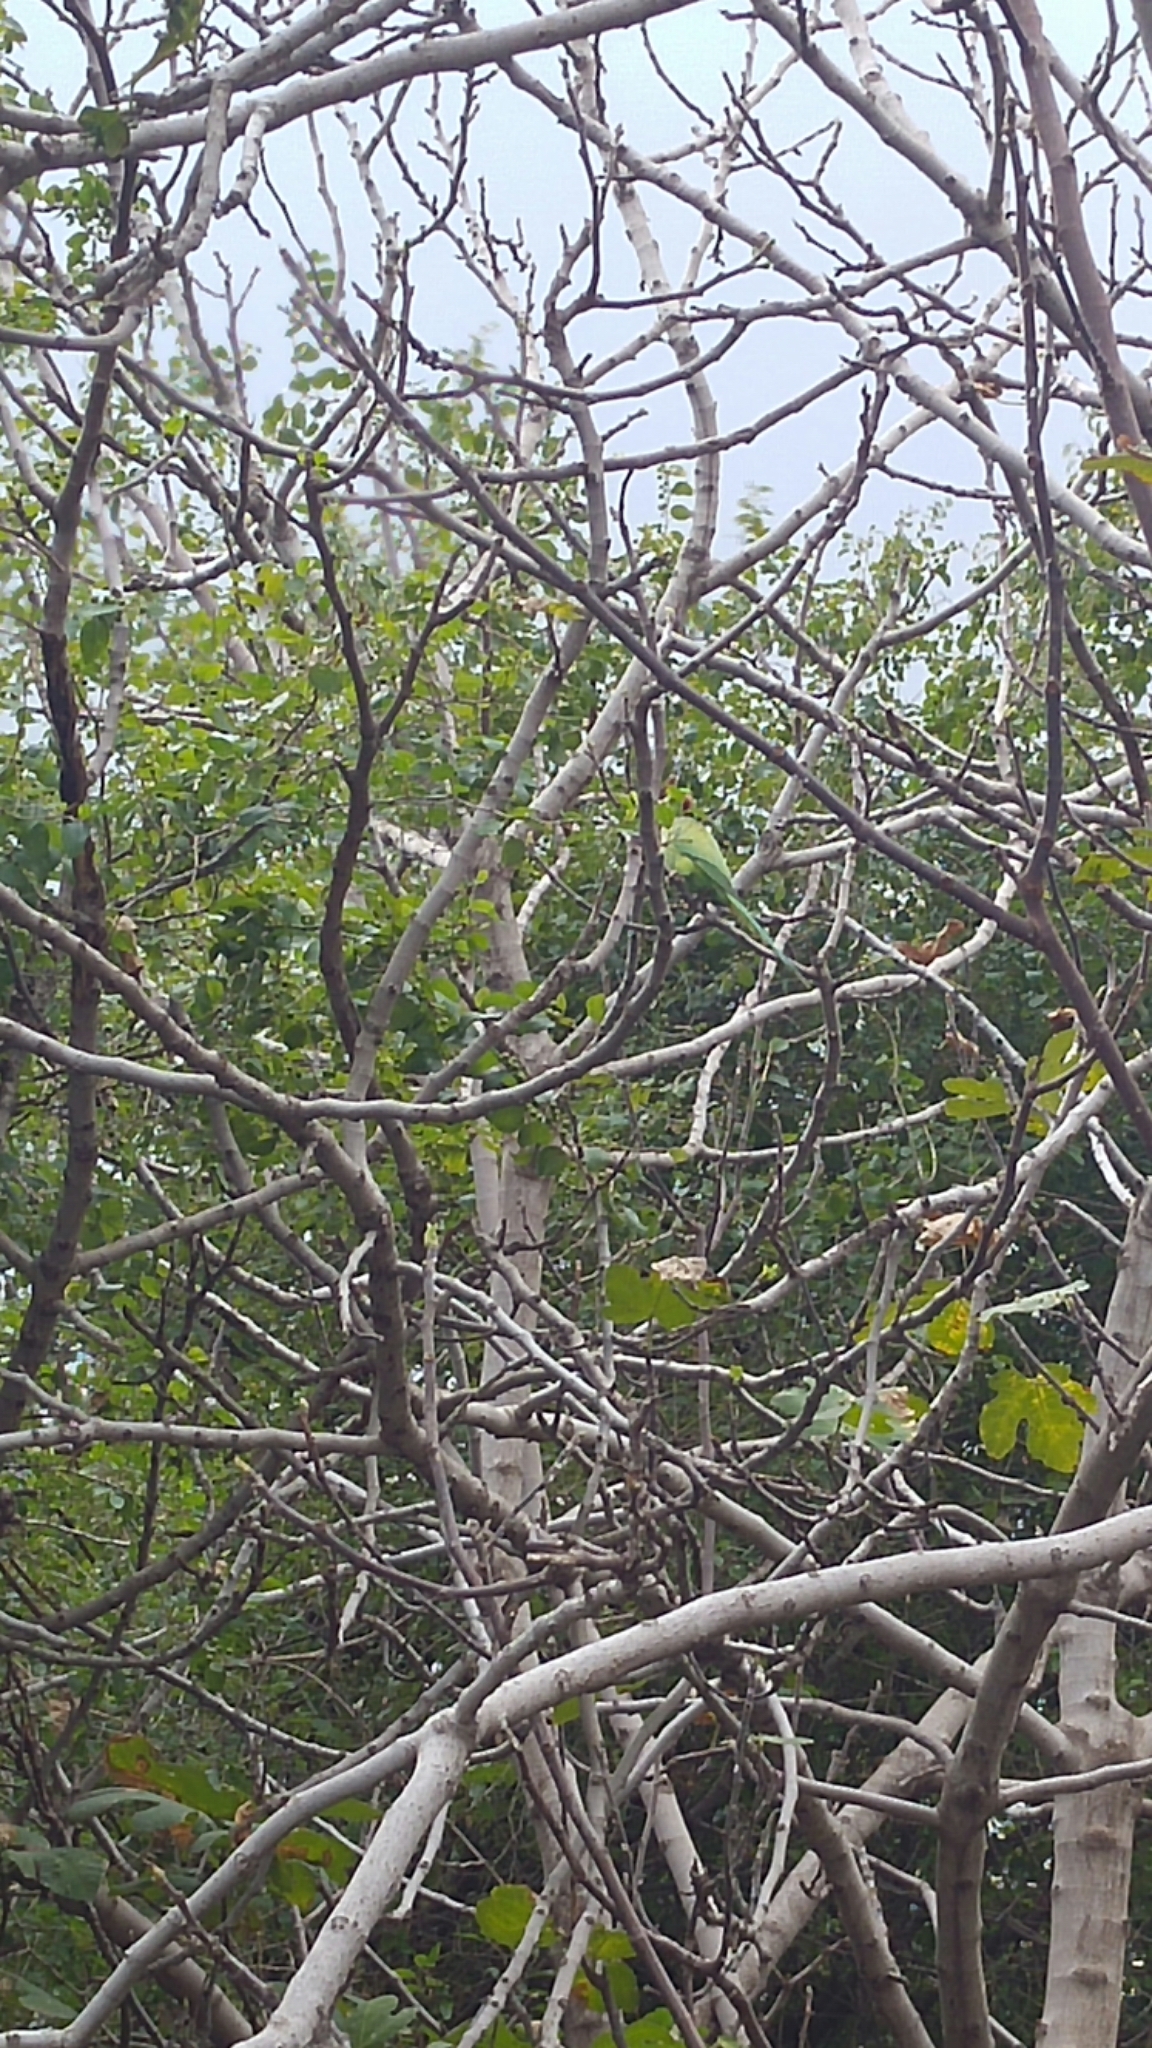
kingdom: Animalia
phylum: Chordata
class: Aves
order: Psittaciformes
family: Psittacidae
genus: Psittacula
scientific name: Psittacula krameri
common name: Rose-ringed parakeet
